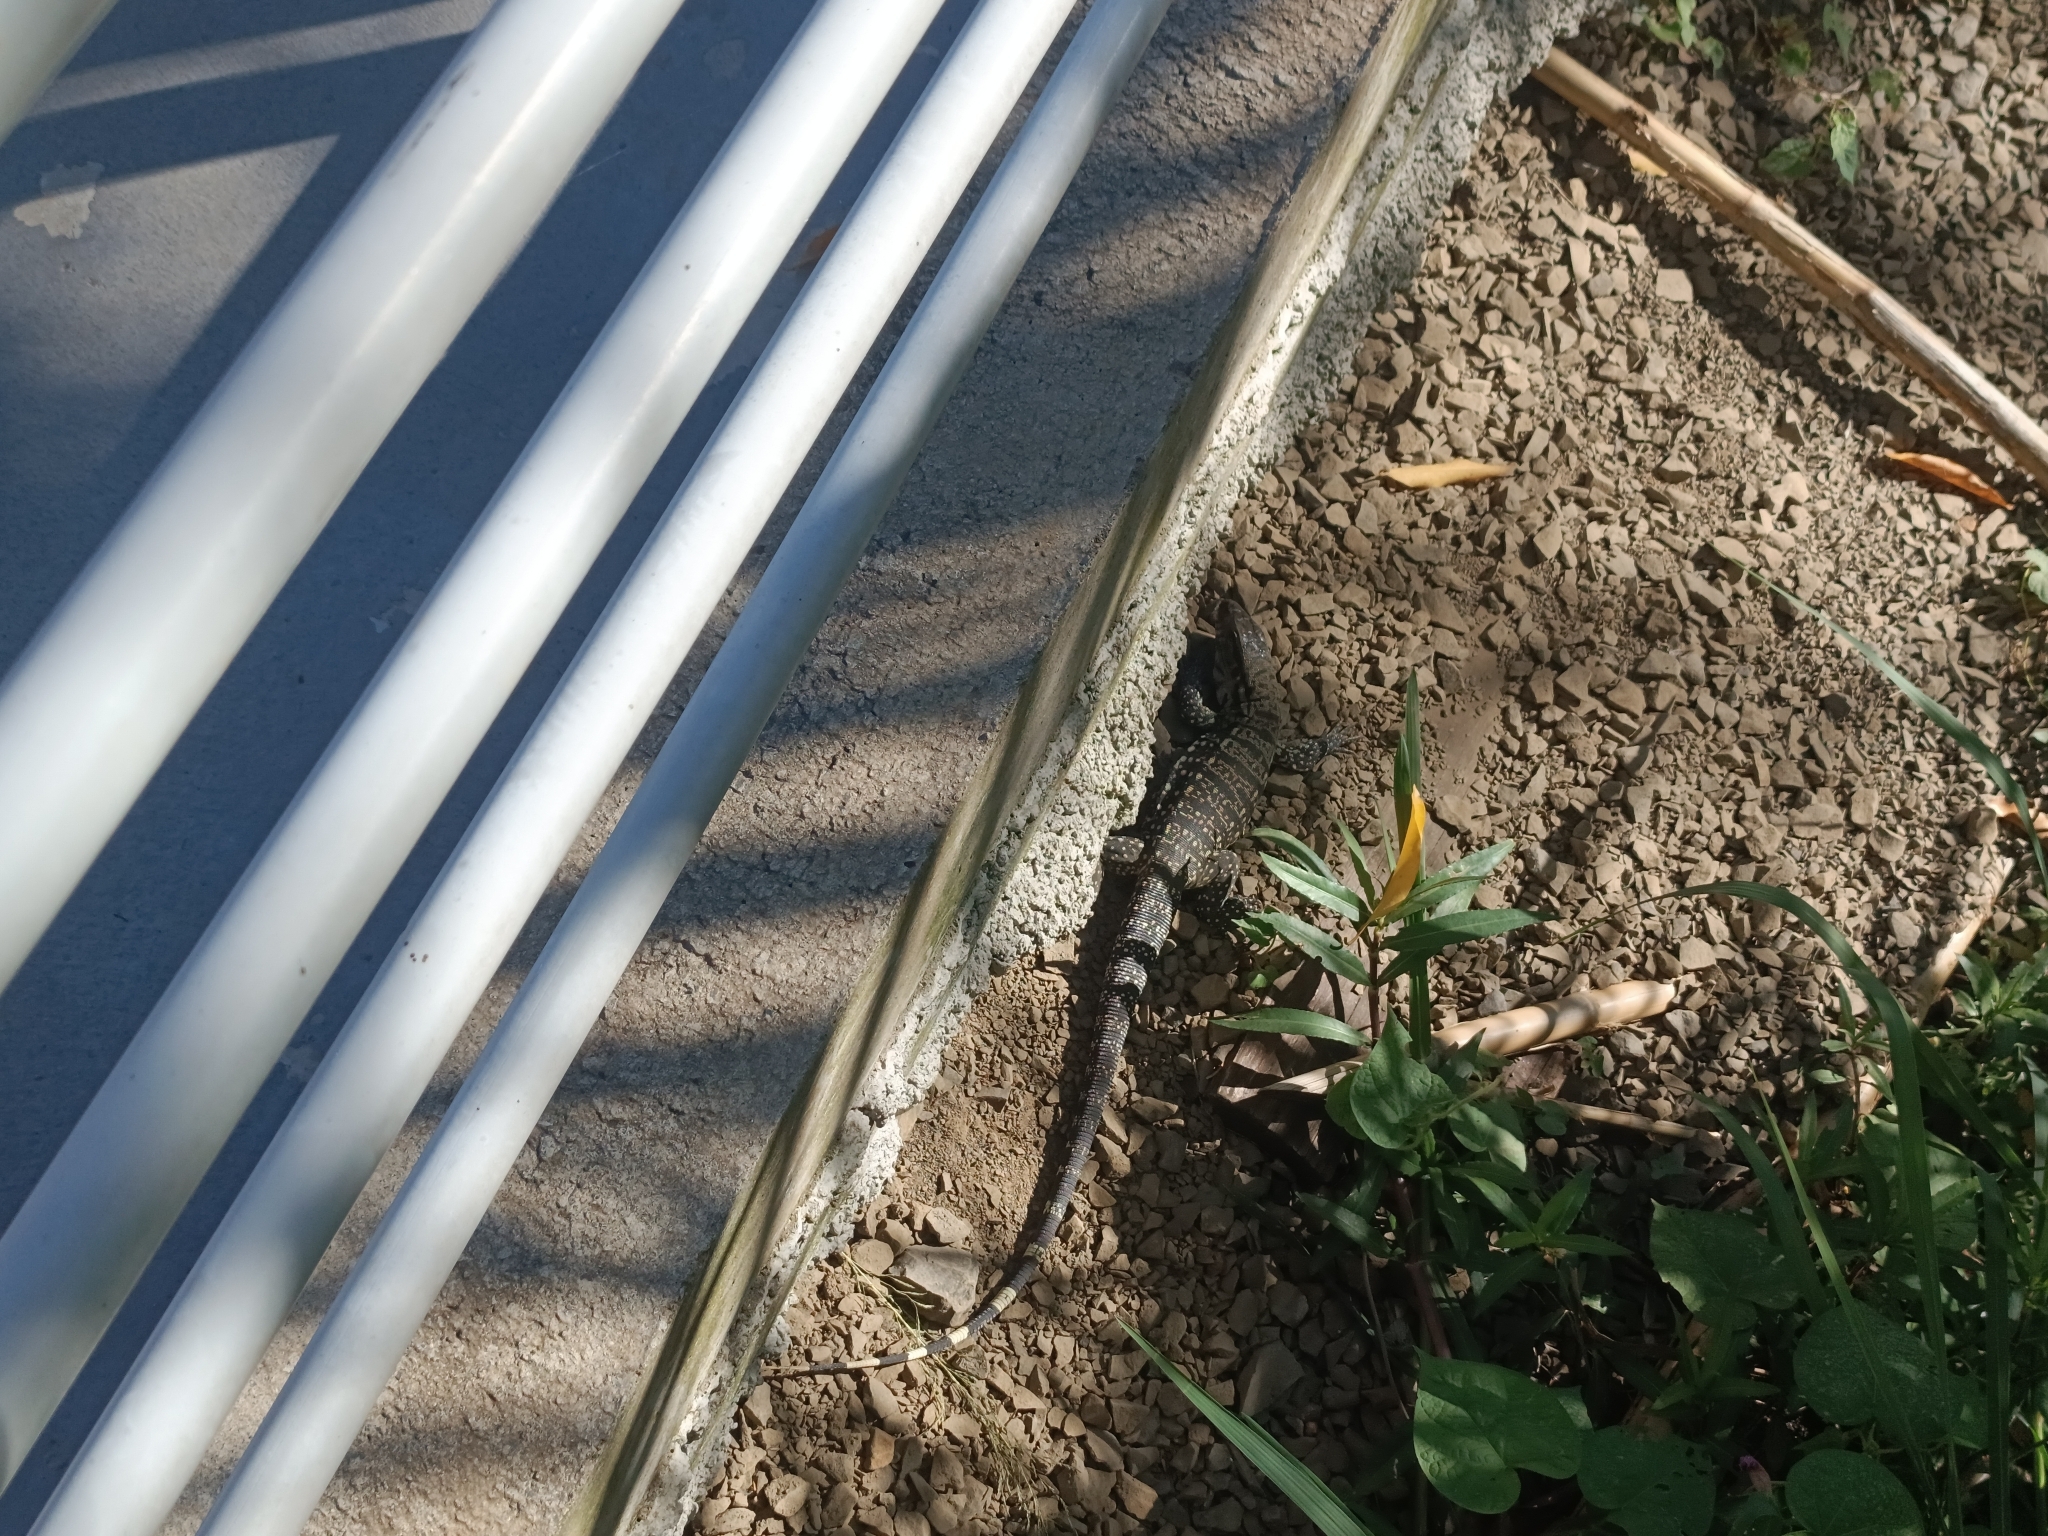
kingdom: Animalia
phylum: Chordata
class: Squamata
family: Teiidae
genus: Salvator
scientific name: Salvator merianae
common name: Argentine black and white tegu
